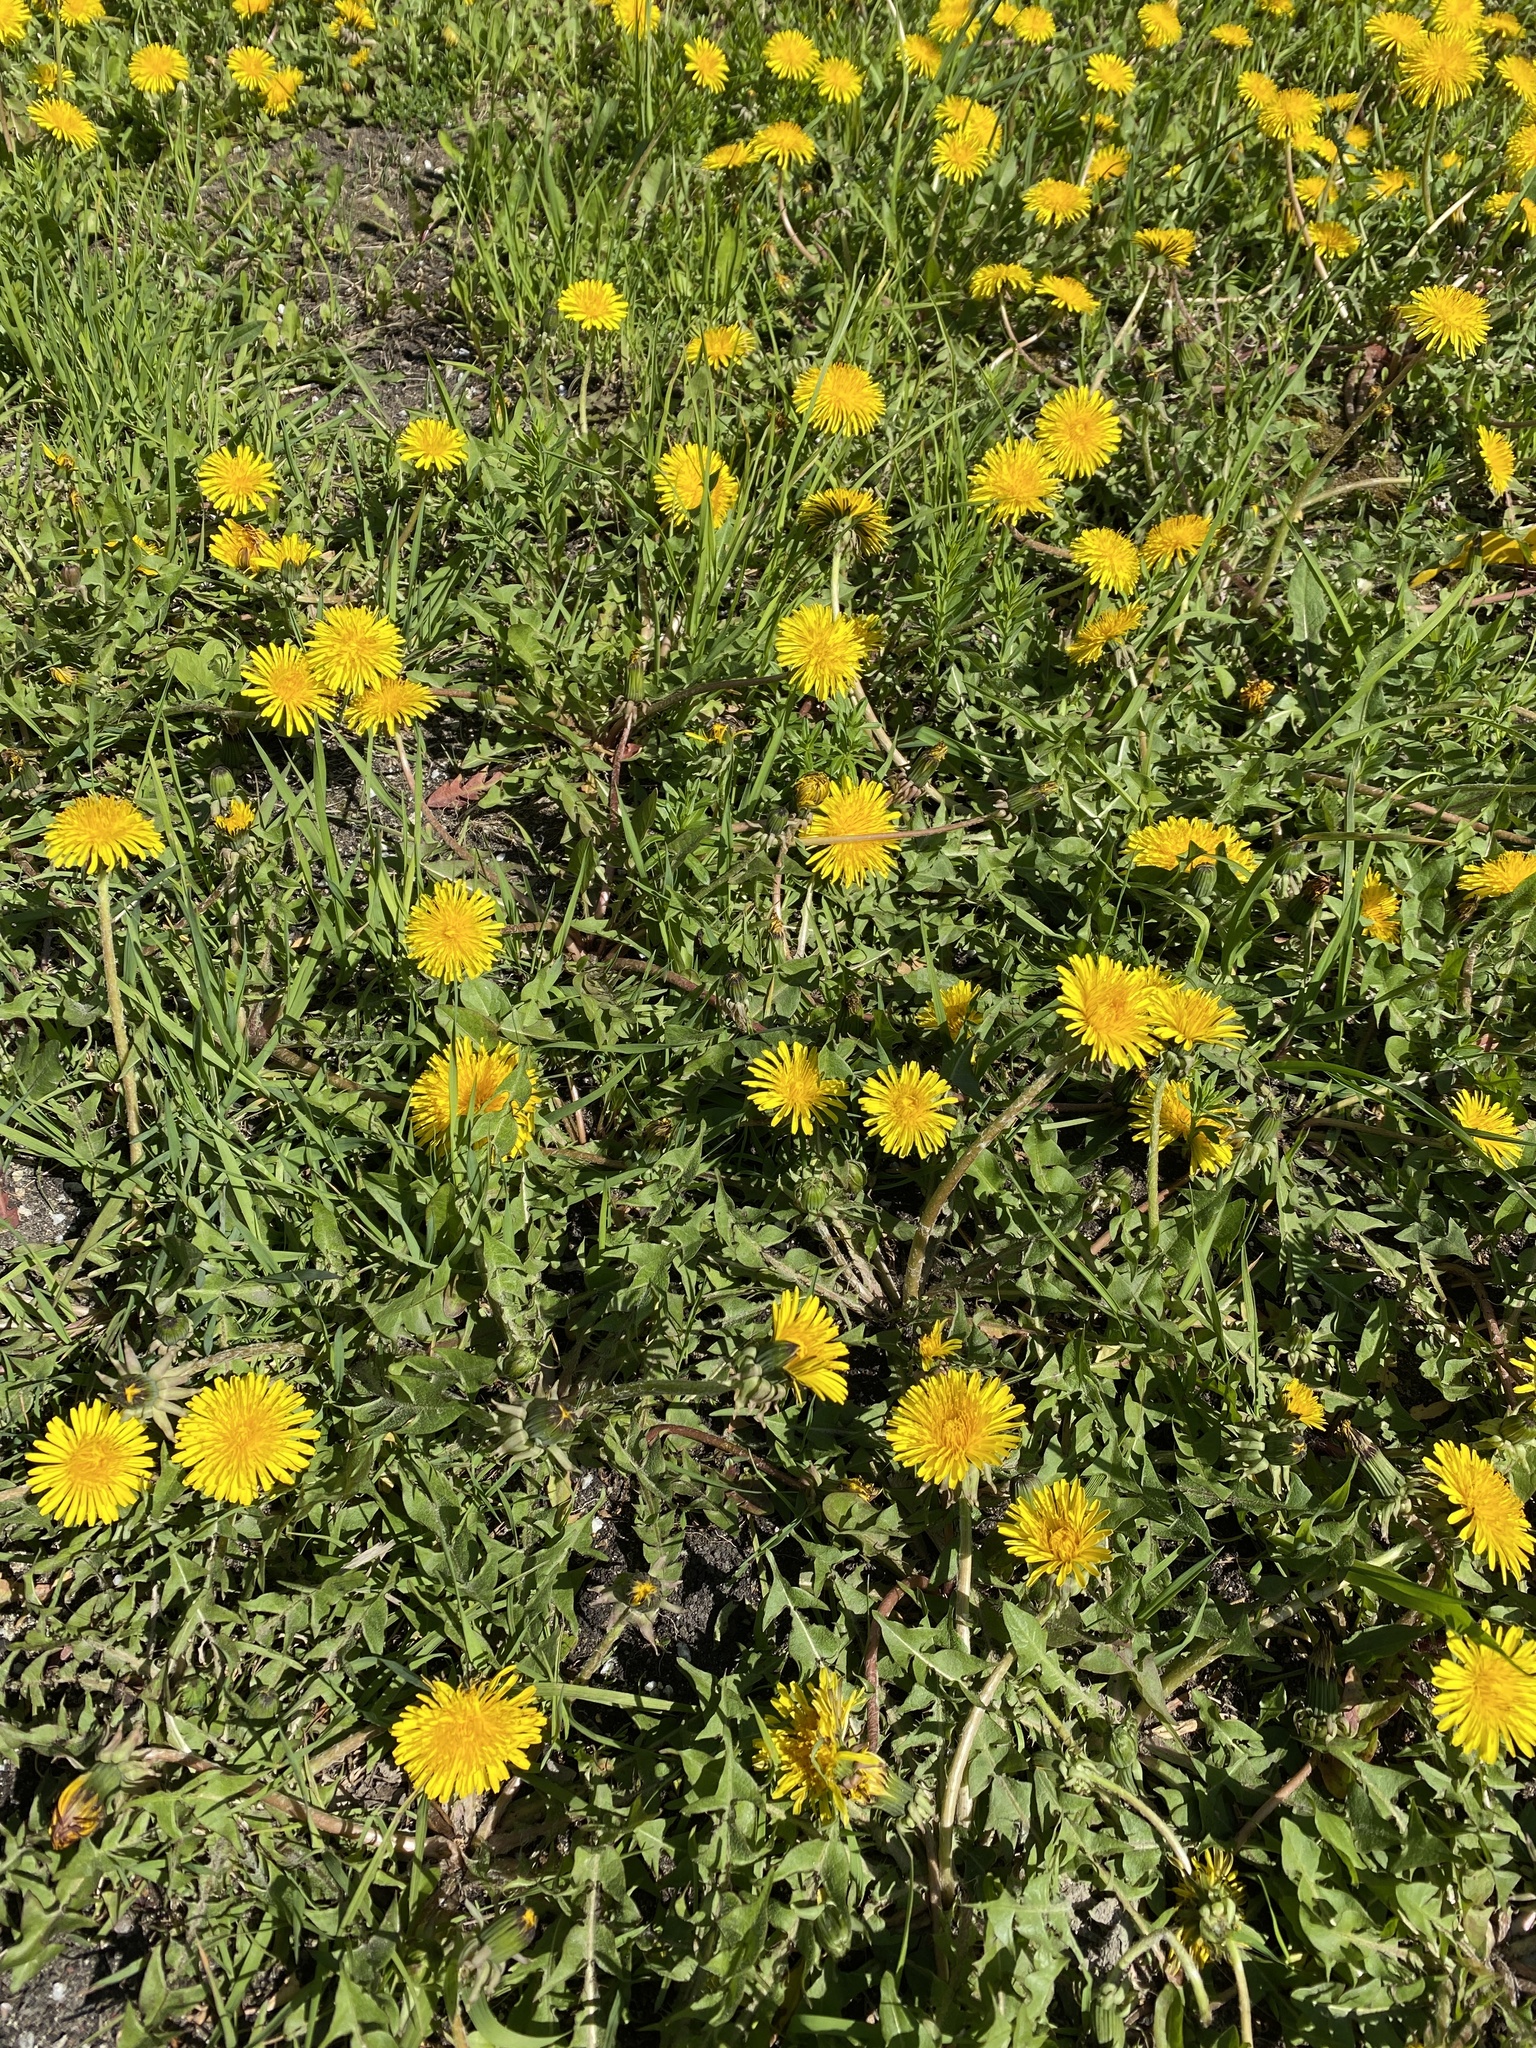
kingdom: Plantae
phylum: Tracheophyta
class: Magnoliopsida
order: Asterales
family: Asteraceae
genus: Taraxacum
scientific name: Taraxacum officinale
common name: Common dandelion
